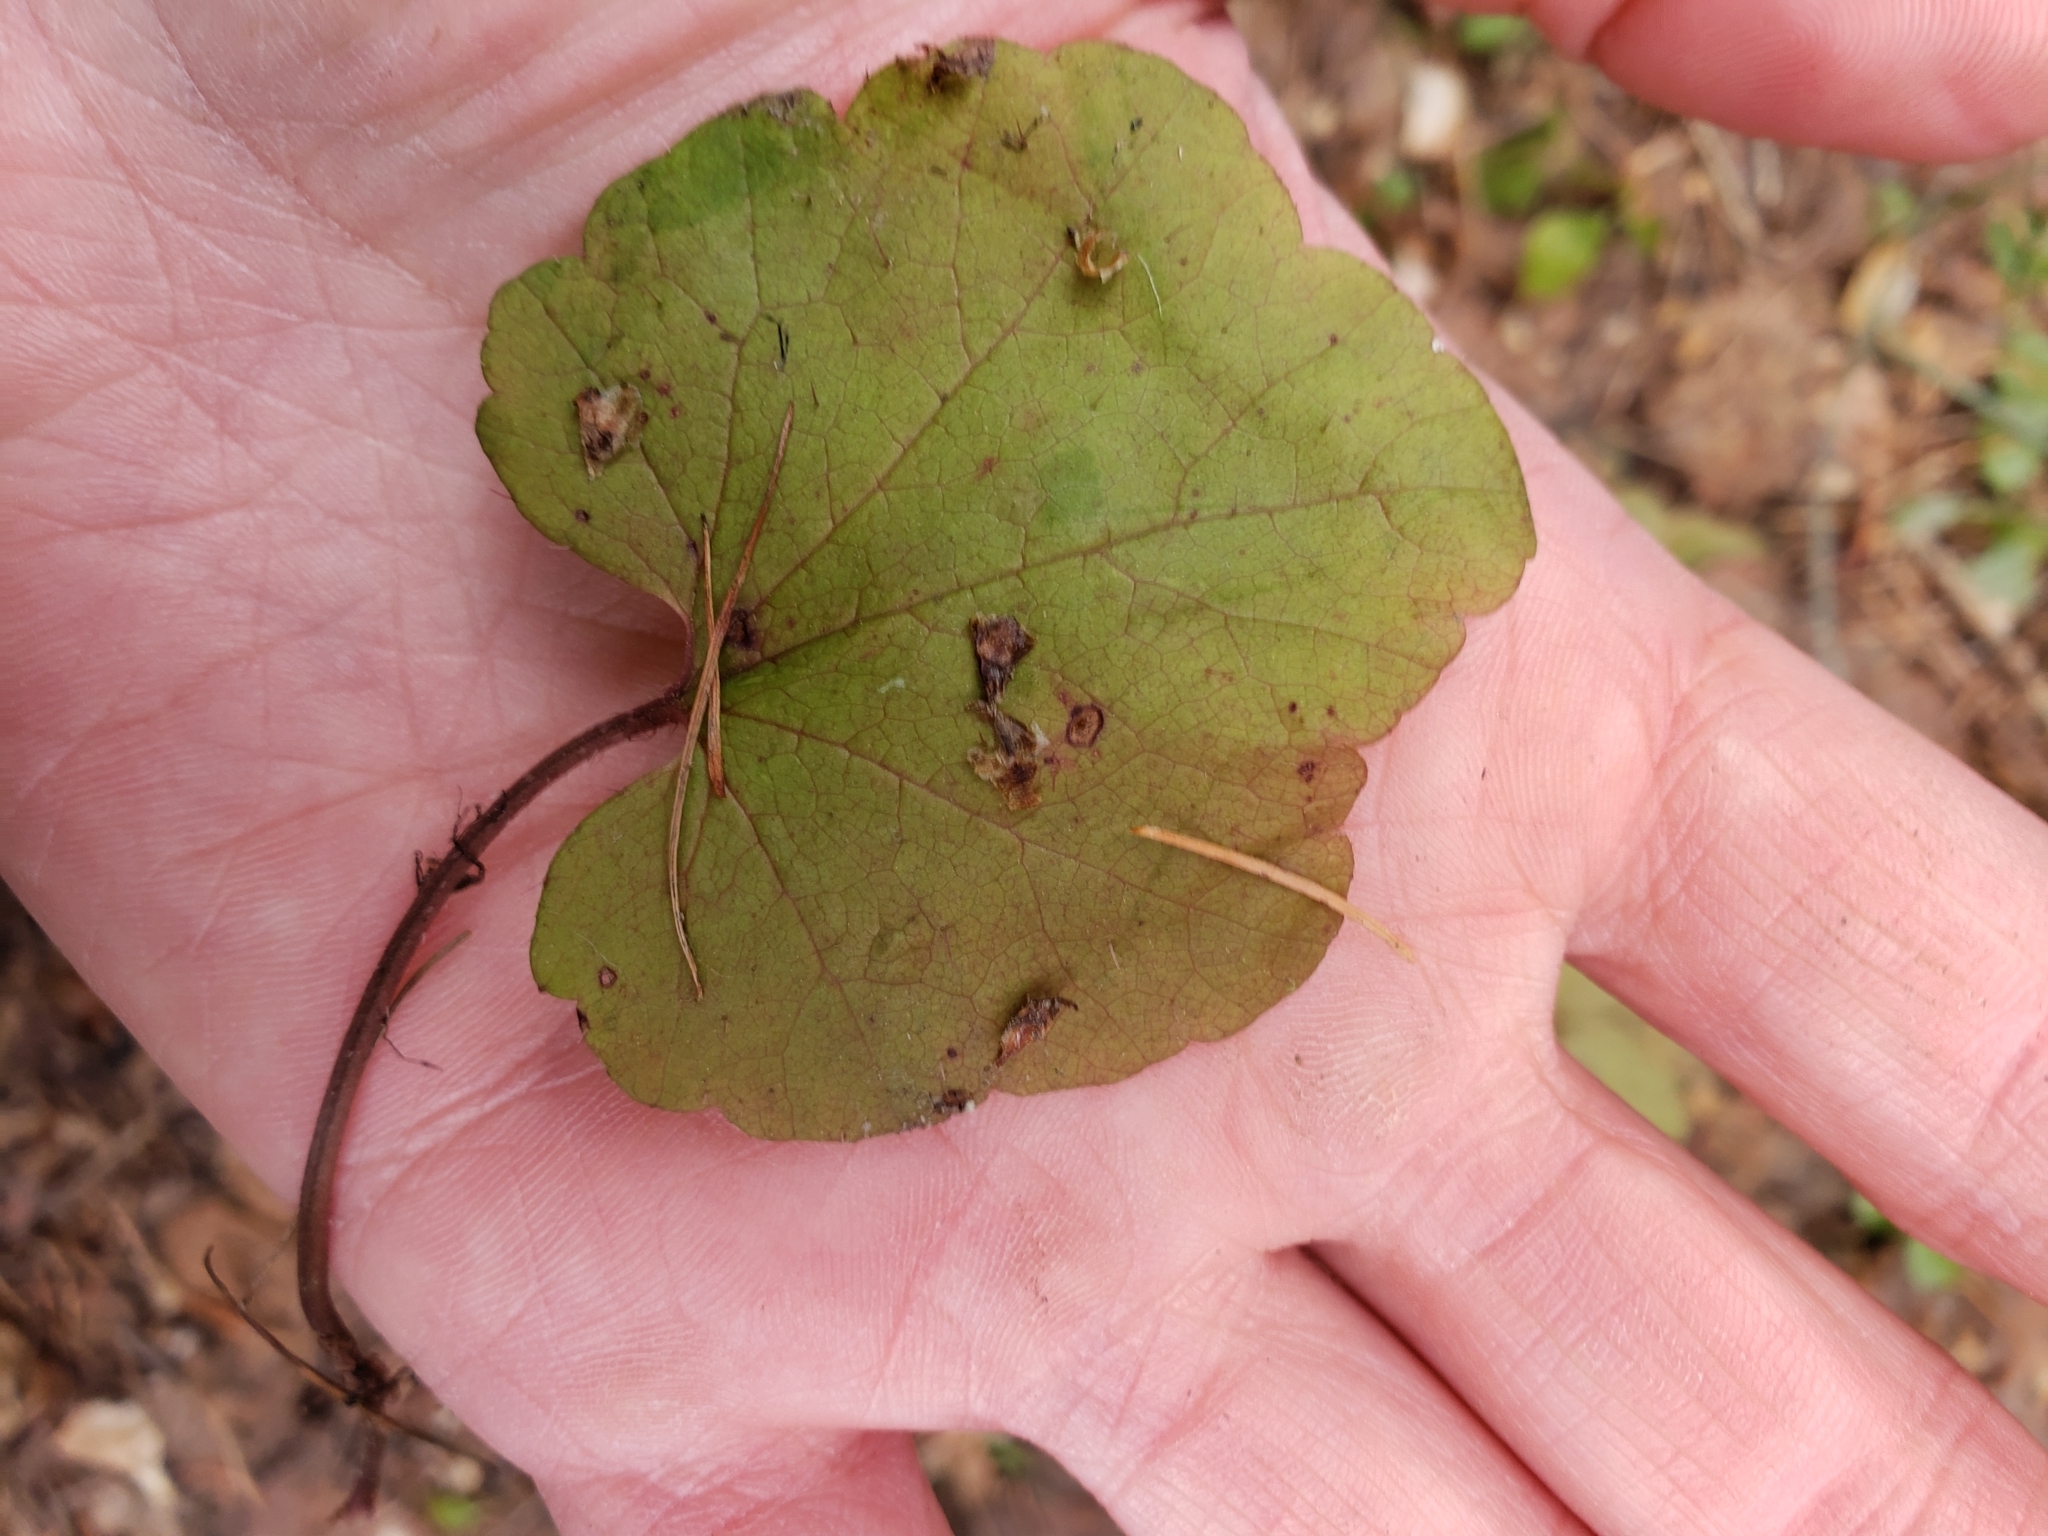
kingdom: Plantae
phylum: Tracheophyta
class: Magnoliopsida
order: Saxifragales
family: Saxifragaceae
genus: Ozomelis
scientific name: Ozomelis stauropetala
